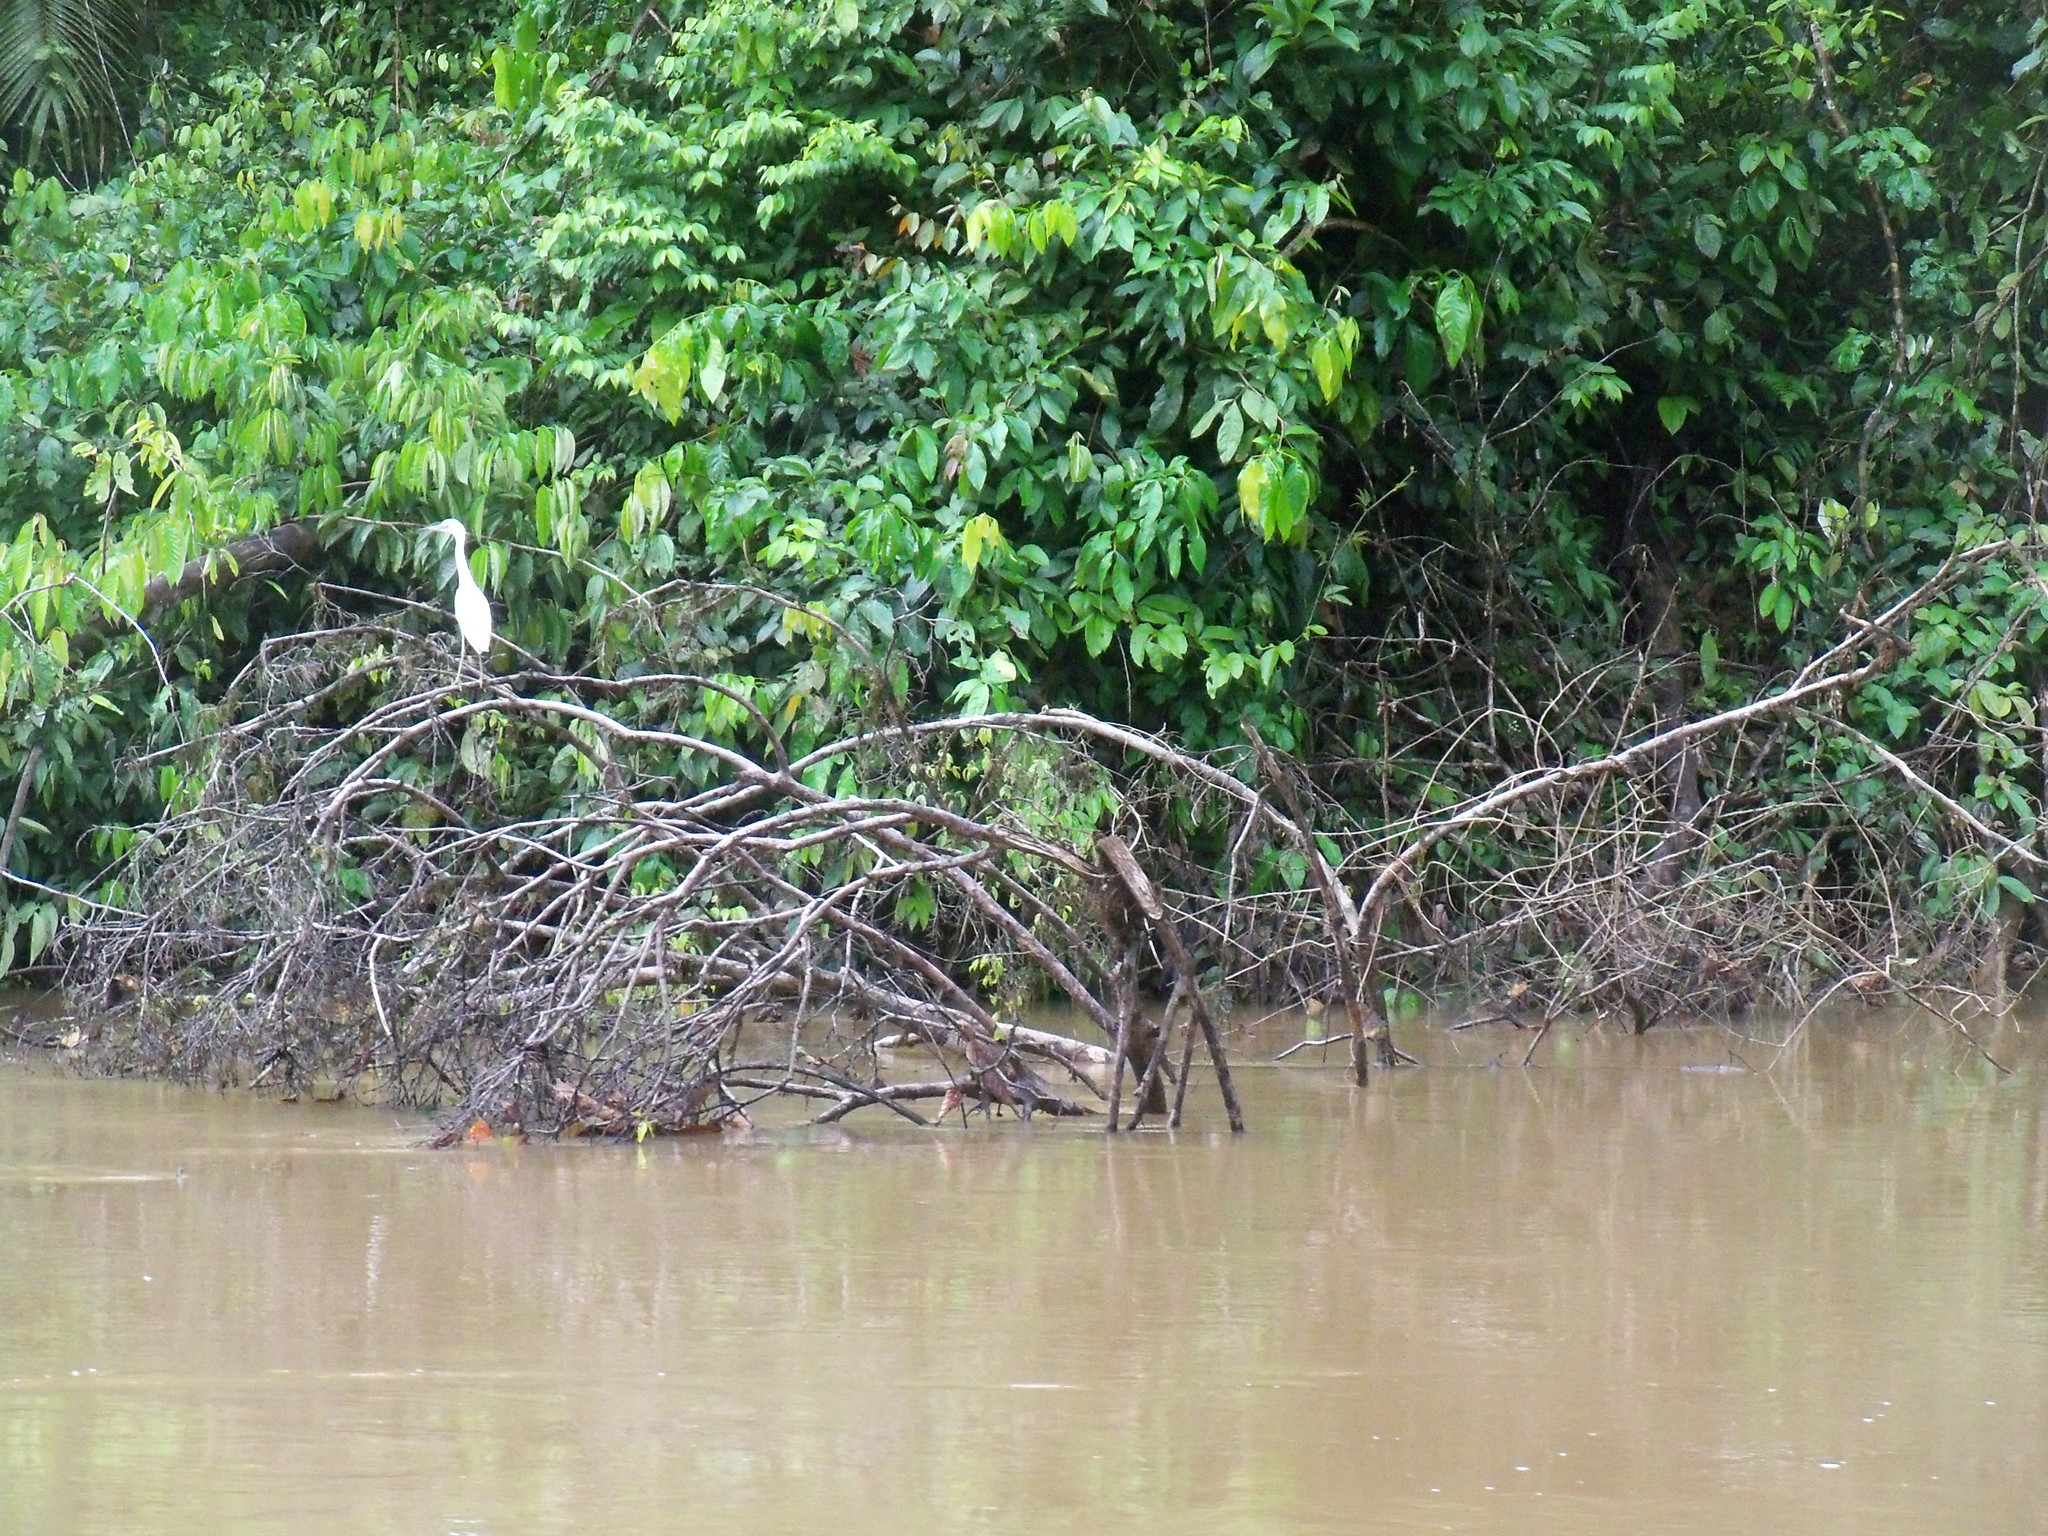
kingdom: Animalia
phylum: Chordata
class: Aves
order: Pelecaniformes
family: Ardeidae
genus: Egretta
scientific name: Egretta caerulea
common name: Little blue heron
